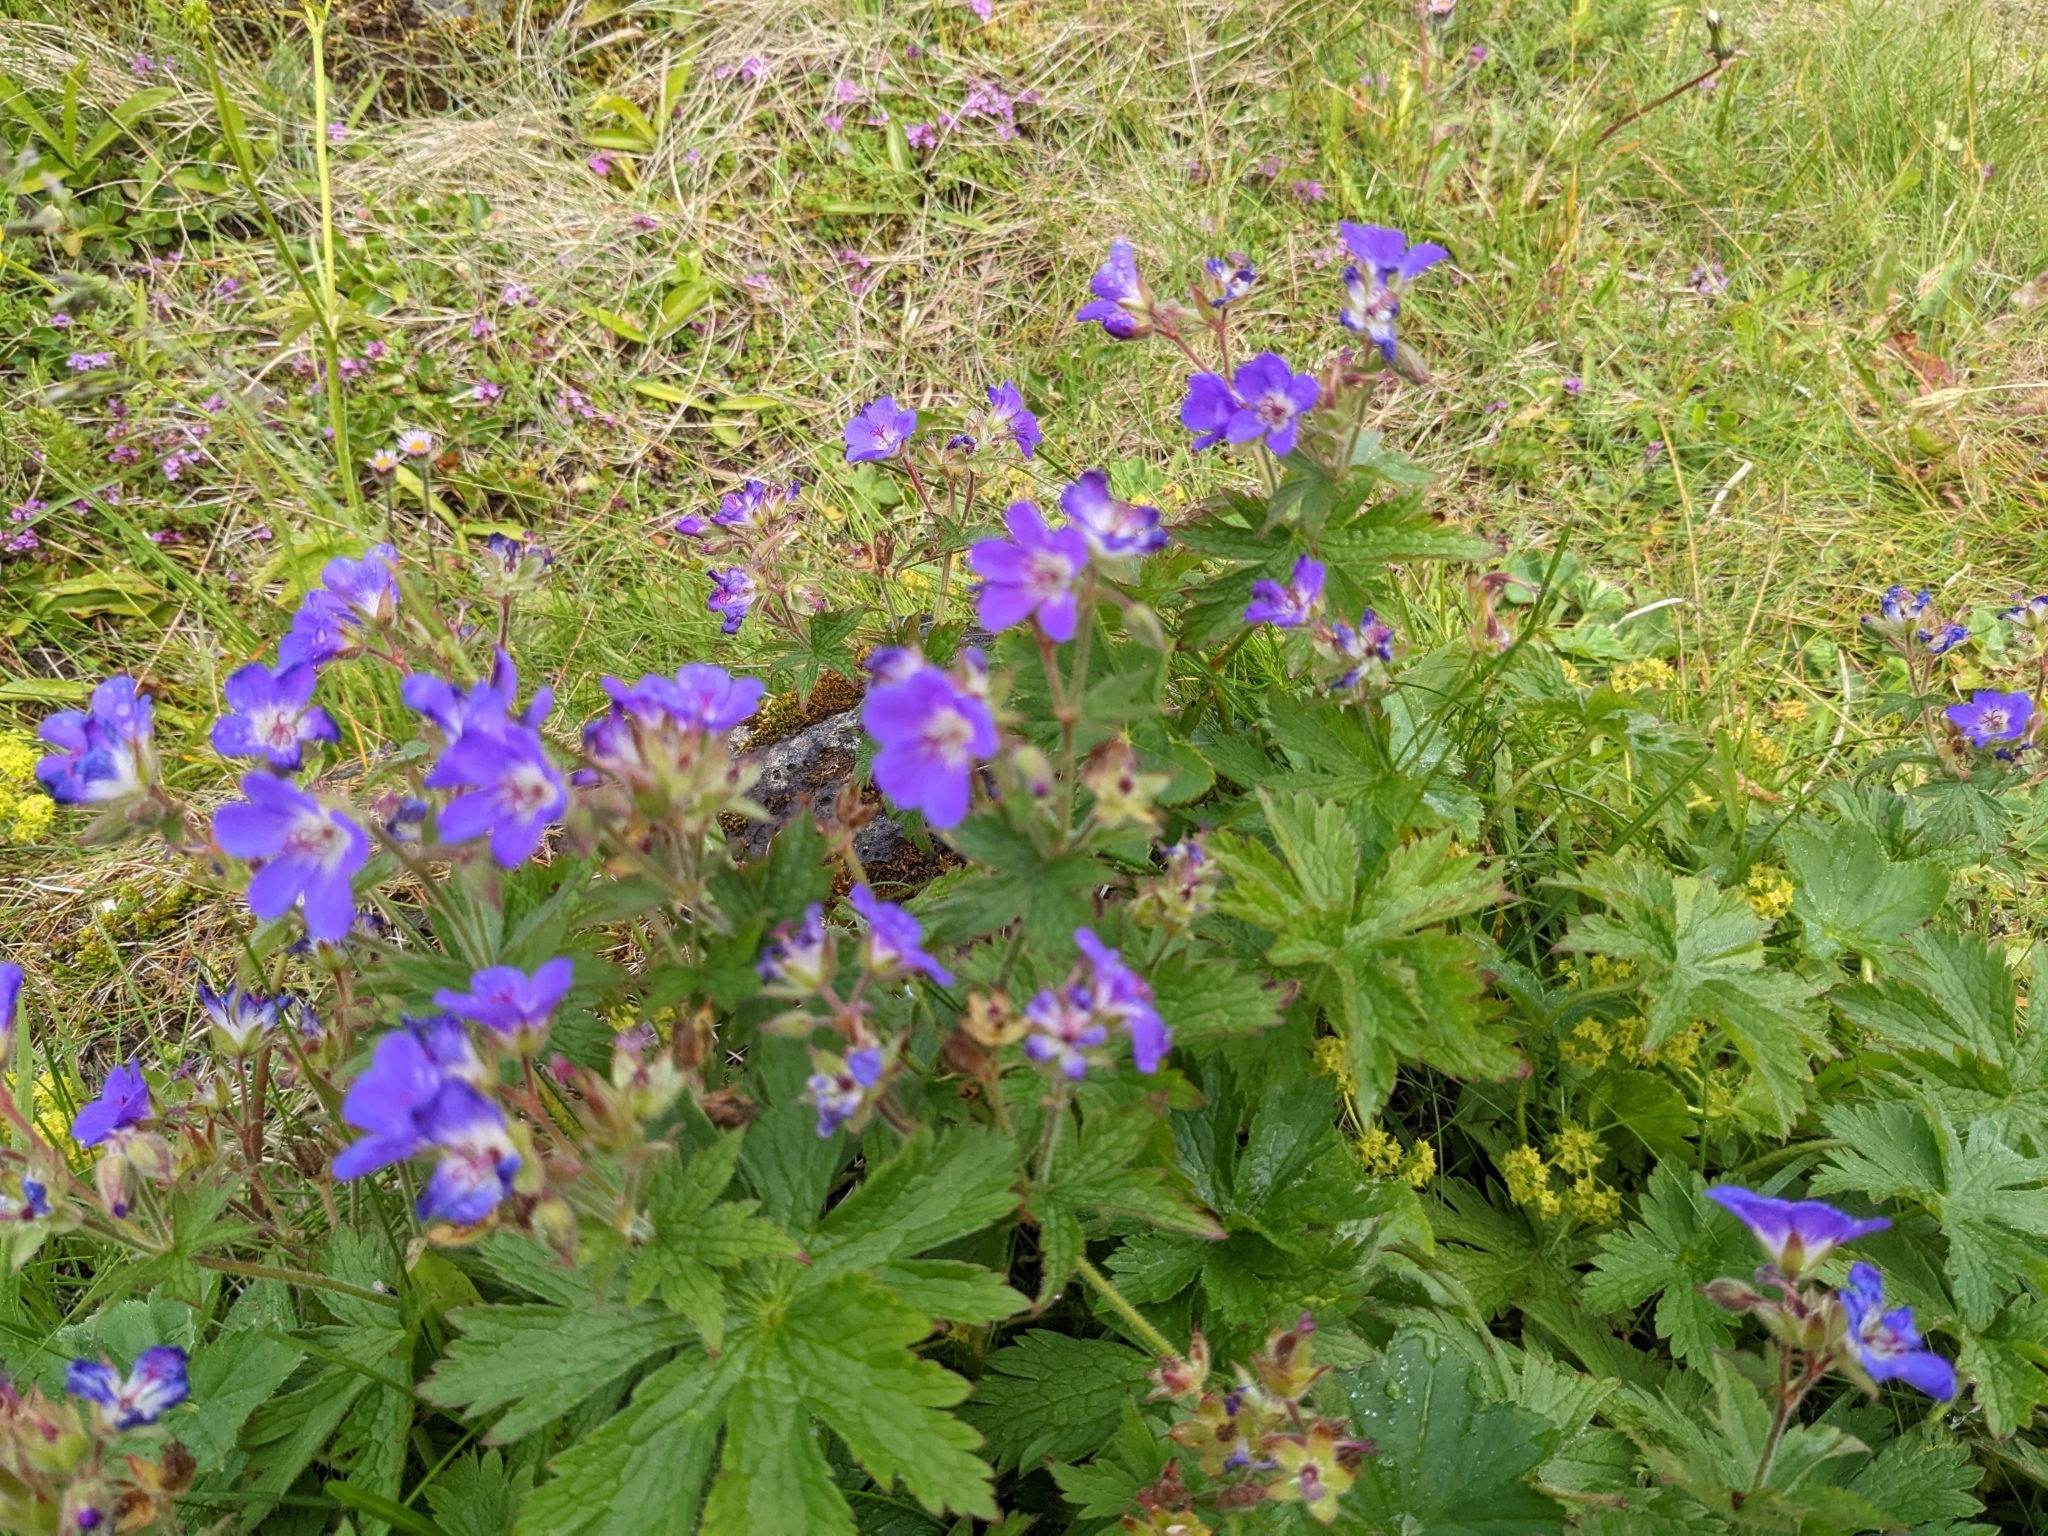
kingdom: Plantae
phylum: Tracheophyta
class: Magnoliopsida
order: Geraniales
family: Geraniaceae
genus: Geranium
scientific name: Geranium sylvaticum
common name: Wood crane's-bill
